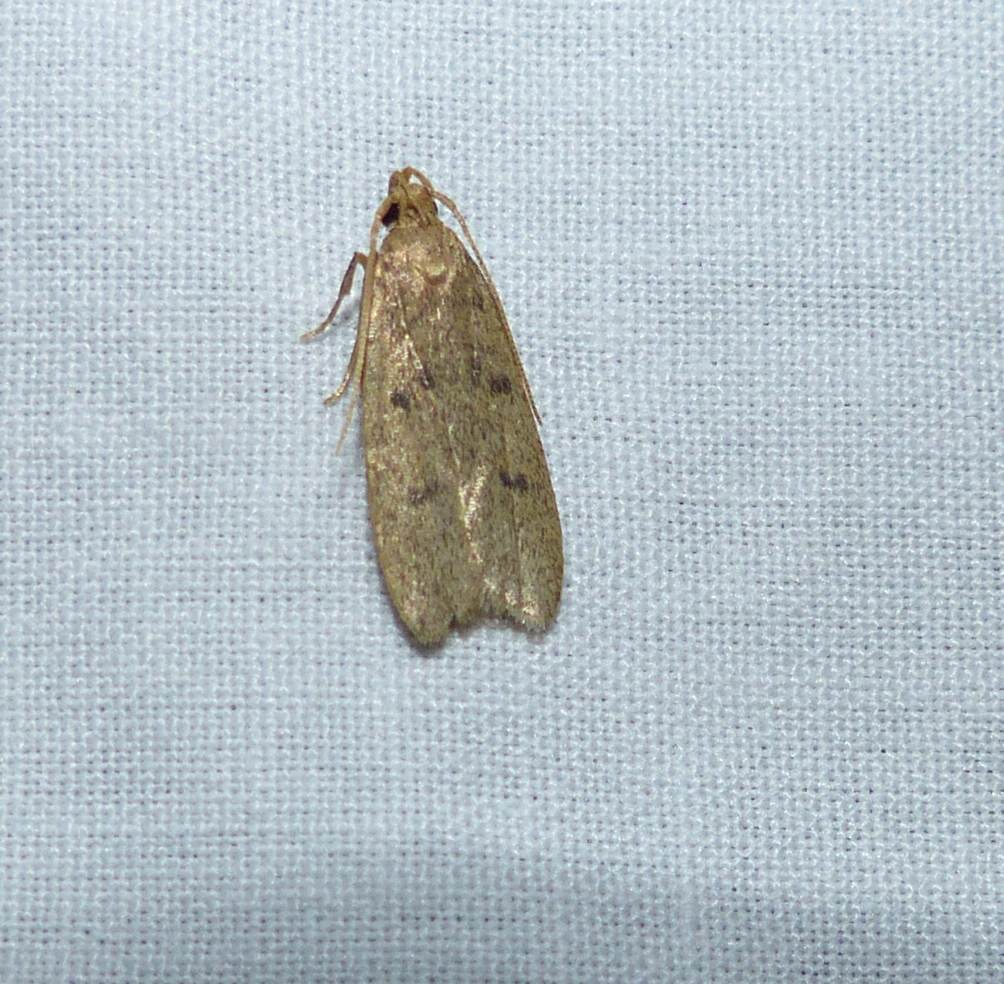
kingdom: Animalia
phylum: Arthropoda
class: Insecta
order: Lepidoptera
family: Autostichidae
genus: Glyphidocera
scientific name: Glyphidocera septentrionella
